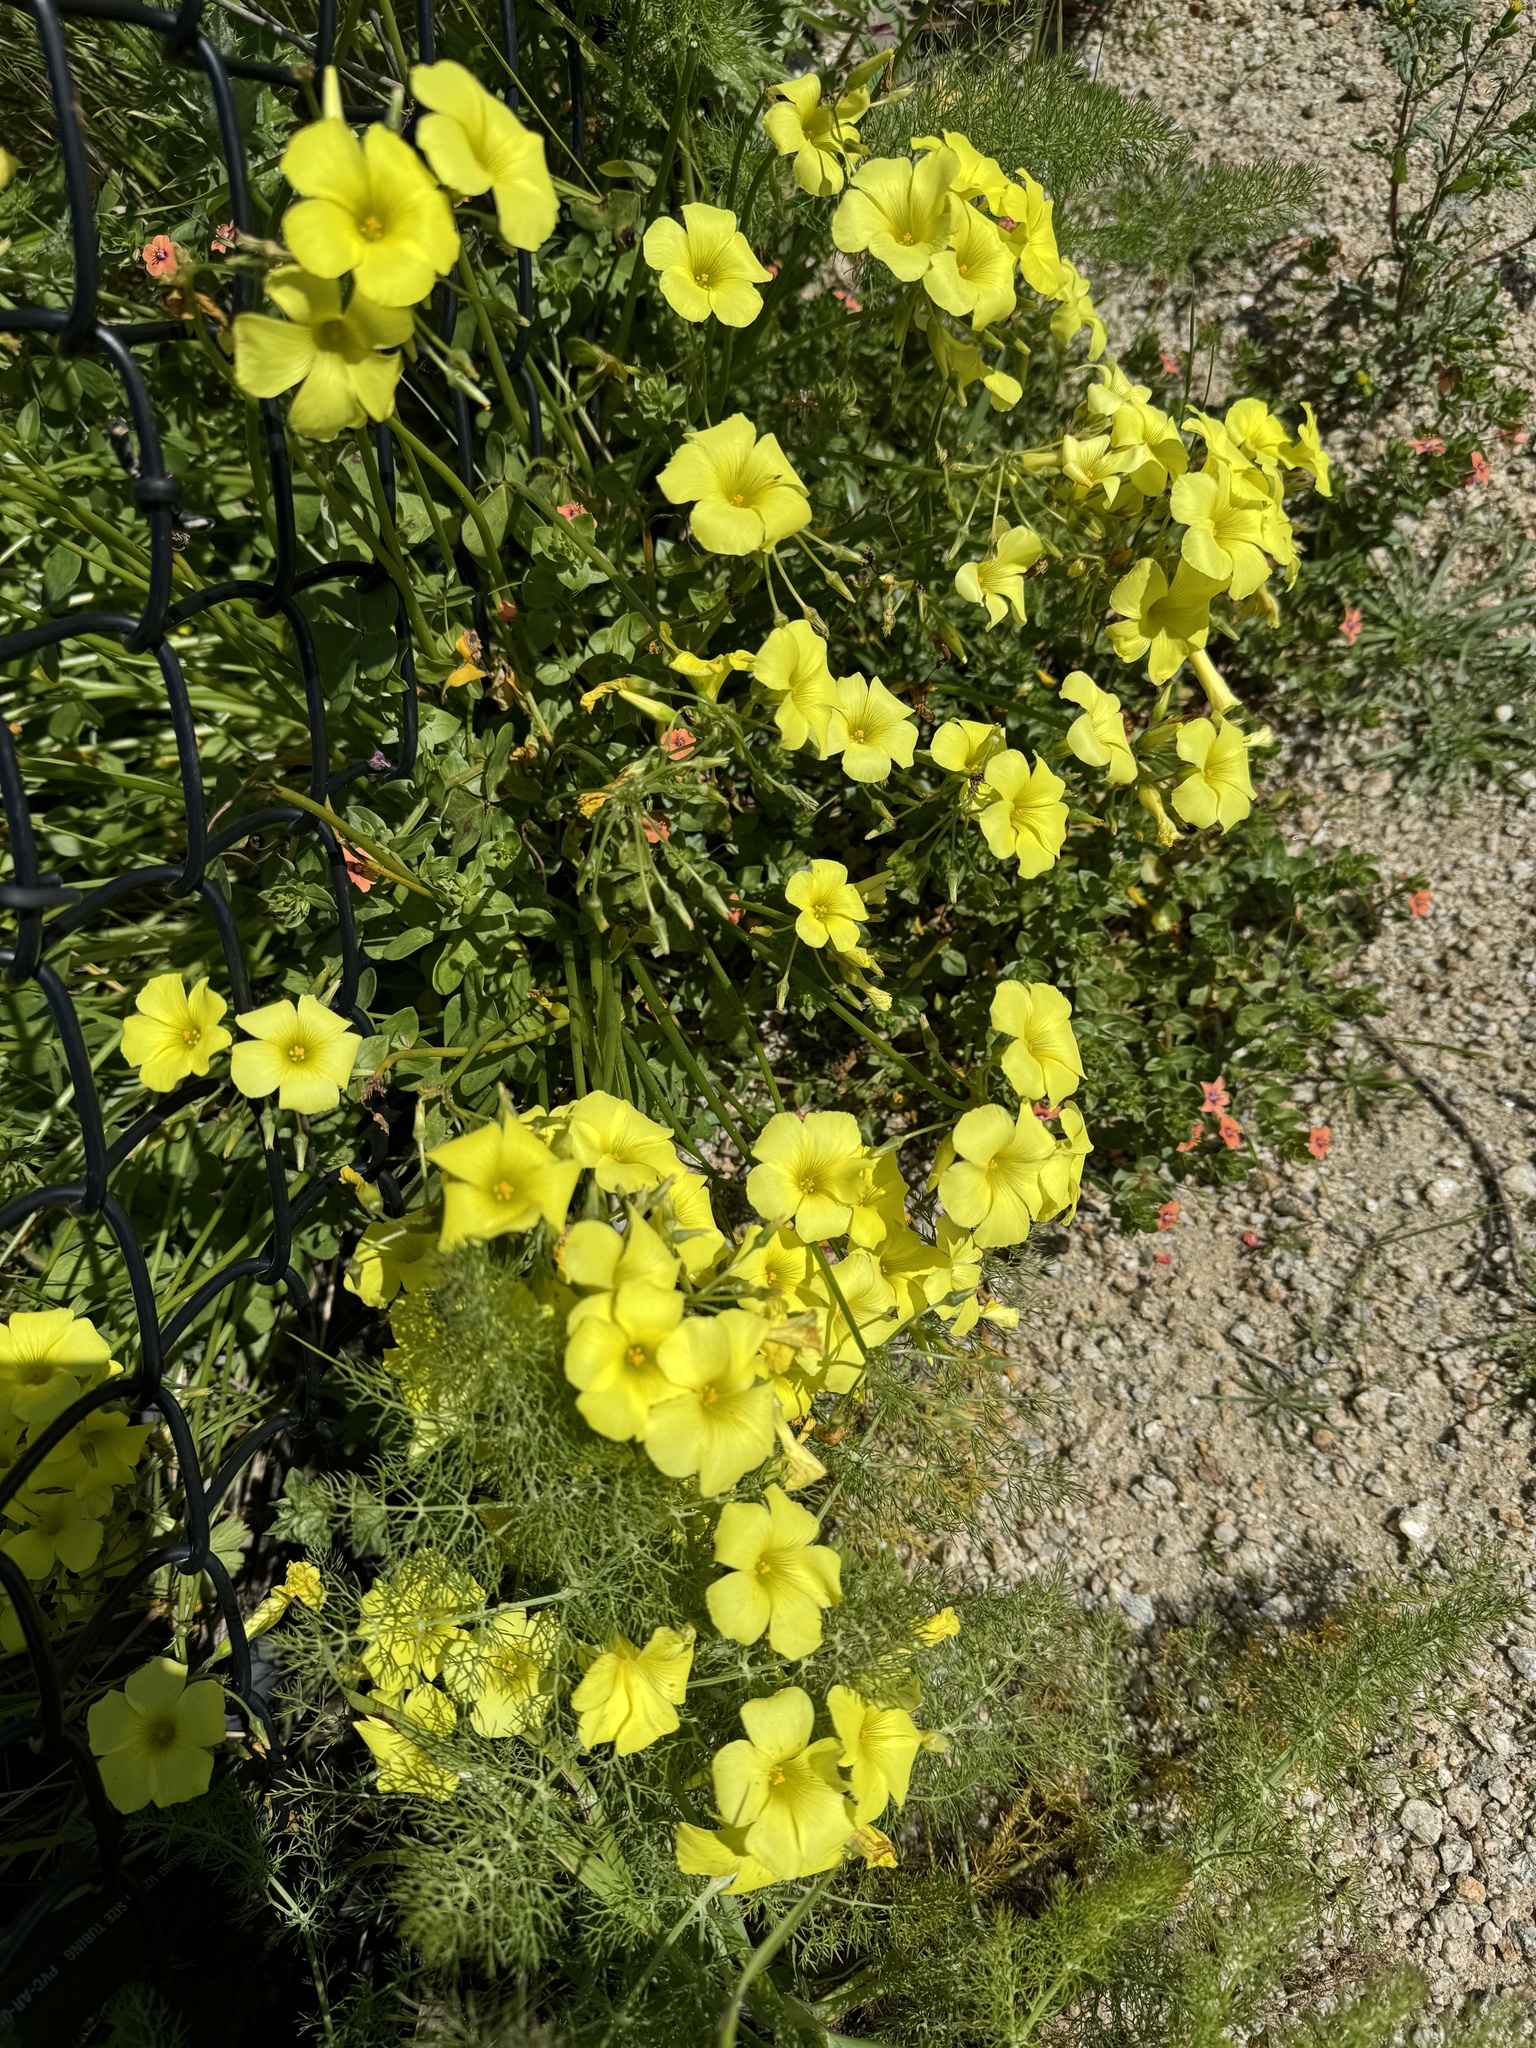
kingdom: Plantae
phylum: Tracheophyta
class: Magnoliopsida
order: Oxalidales
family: Oxalidaceae
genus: Oxalis
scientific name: Oxalis pes-caprae
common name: Bermuda-buttercup
